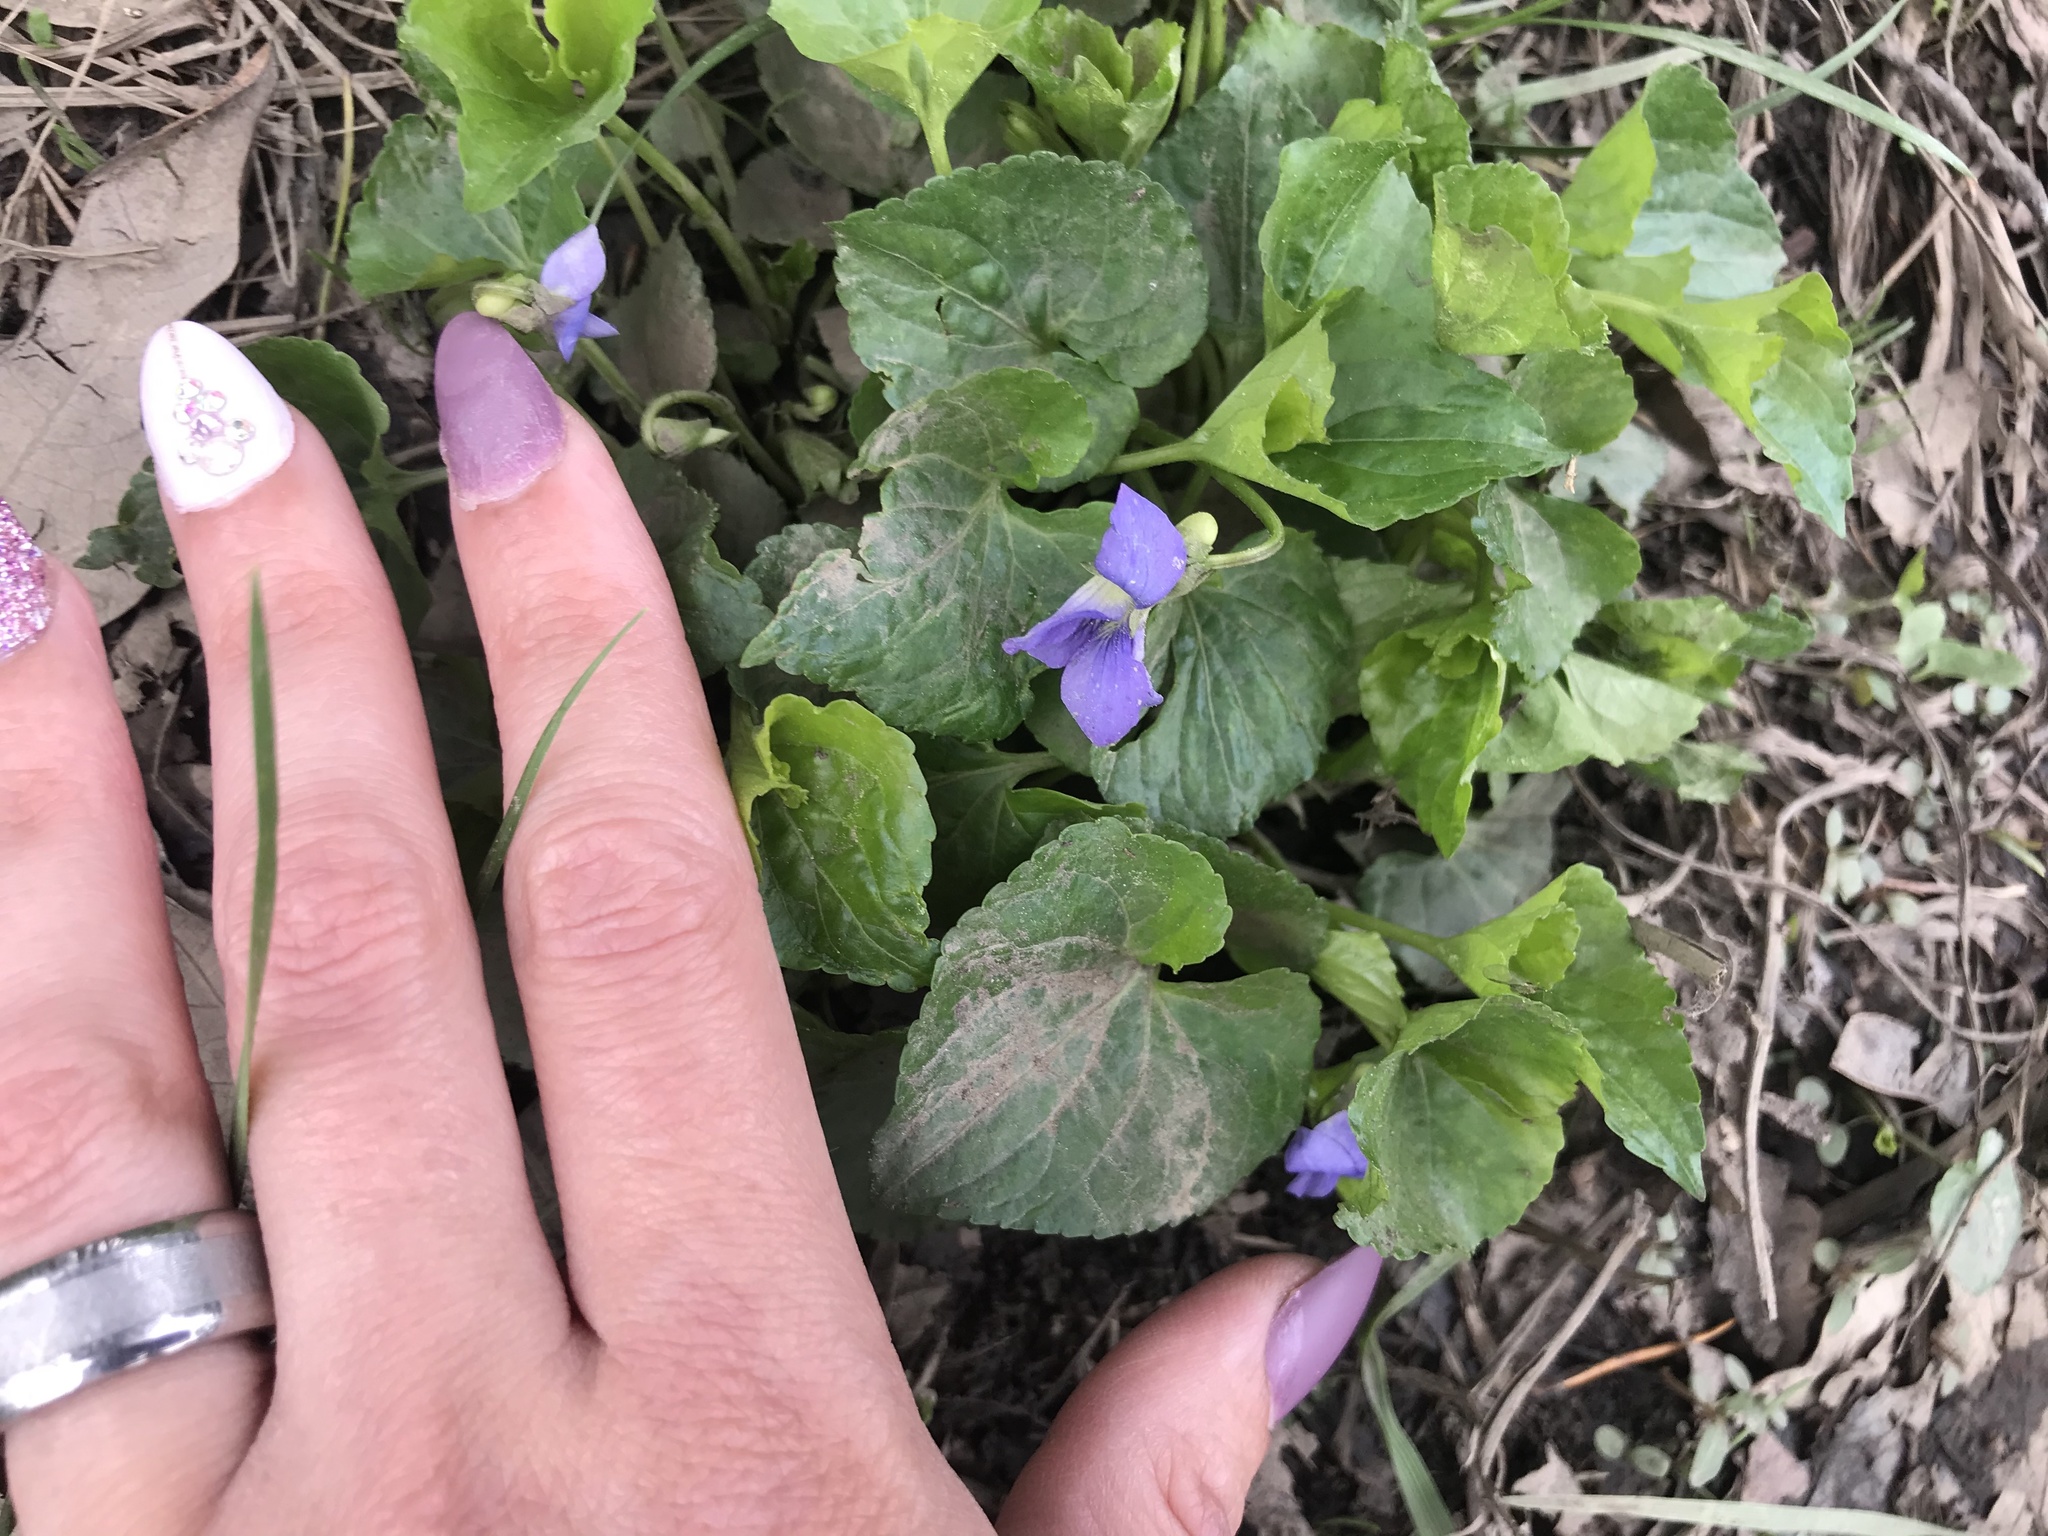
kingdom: Plantae
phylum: Tracheophyta
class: Magnoliopsida
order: Malpighiales
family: Violaceae
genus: Viola
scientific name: Viola sororia
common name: Dooryard violet
